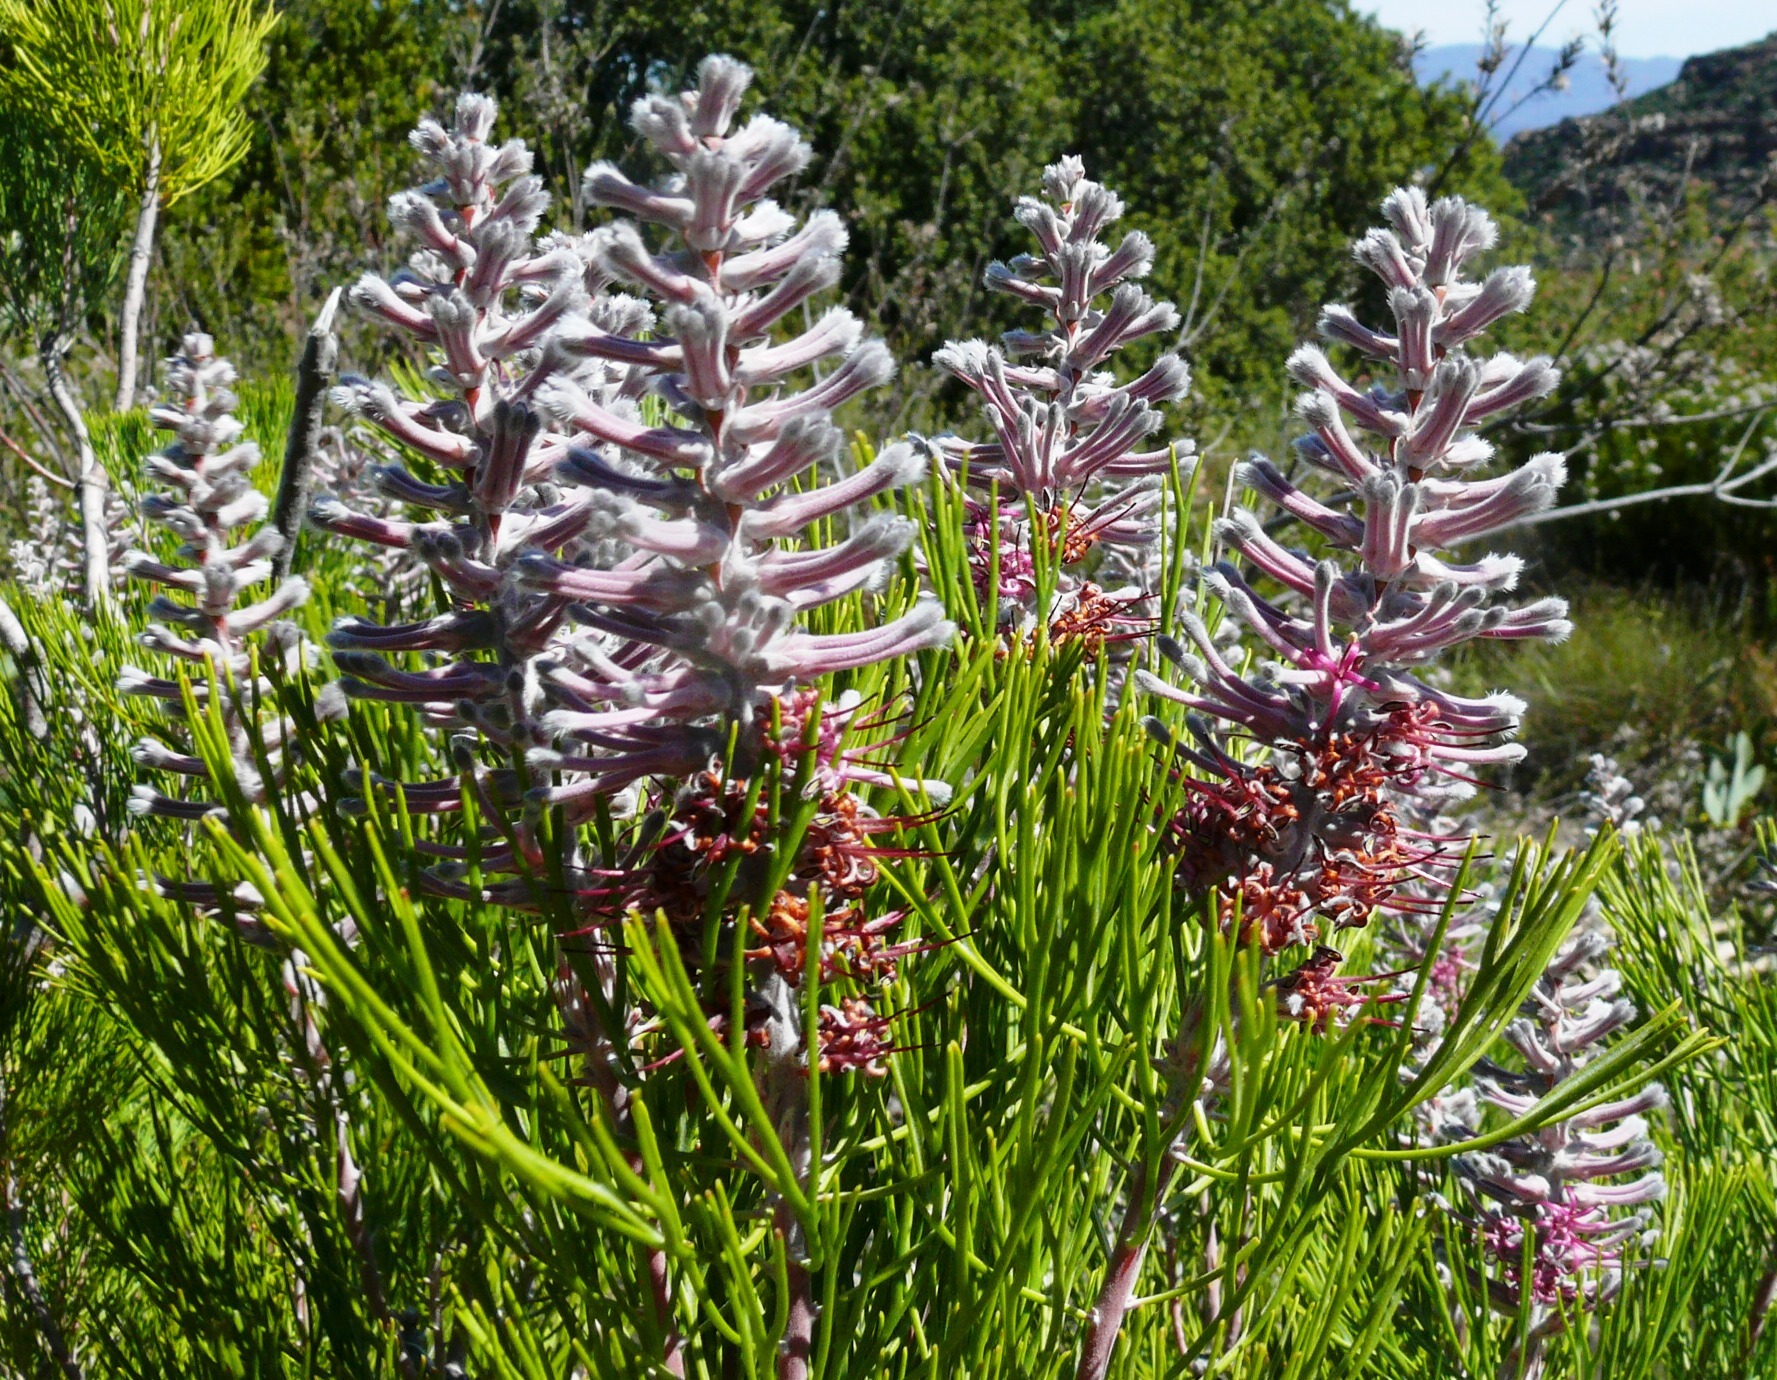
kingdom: Plantae
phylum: Tracheophyta
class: Magnoliopsida
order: Proteales
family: Proteaceae
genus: Paranomus
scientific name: Paranomus bracteolaris
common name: Bokkeveld tree sceptre
